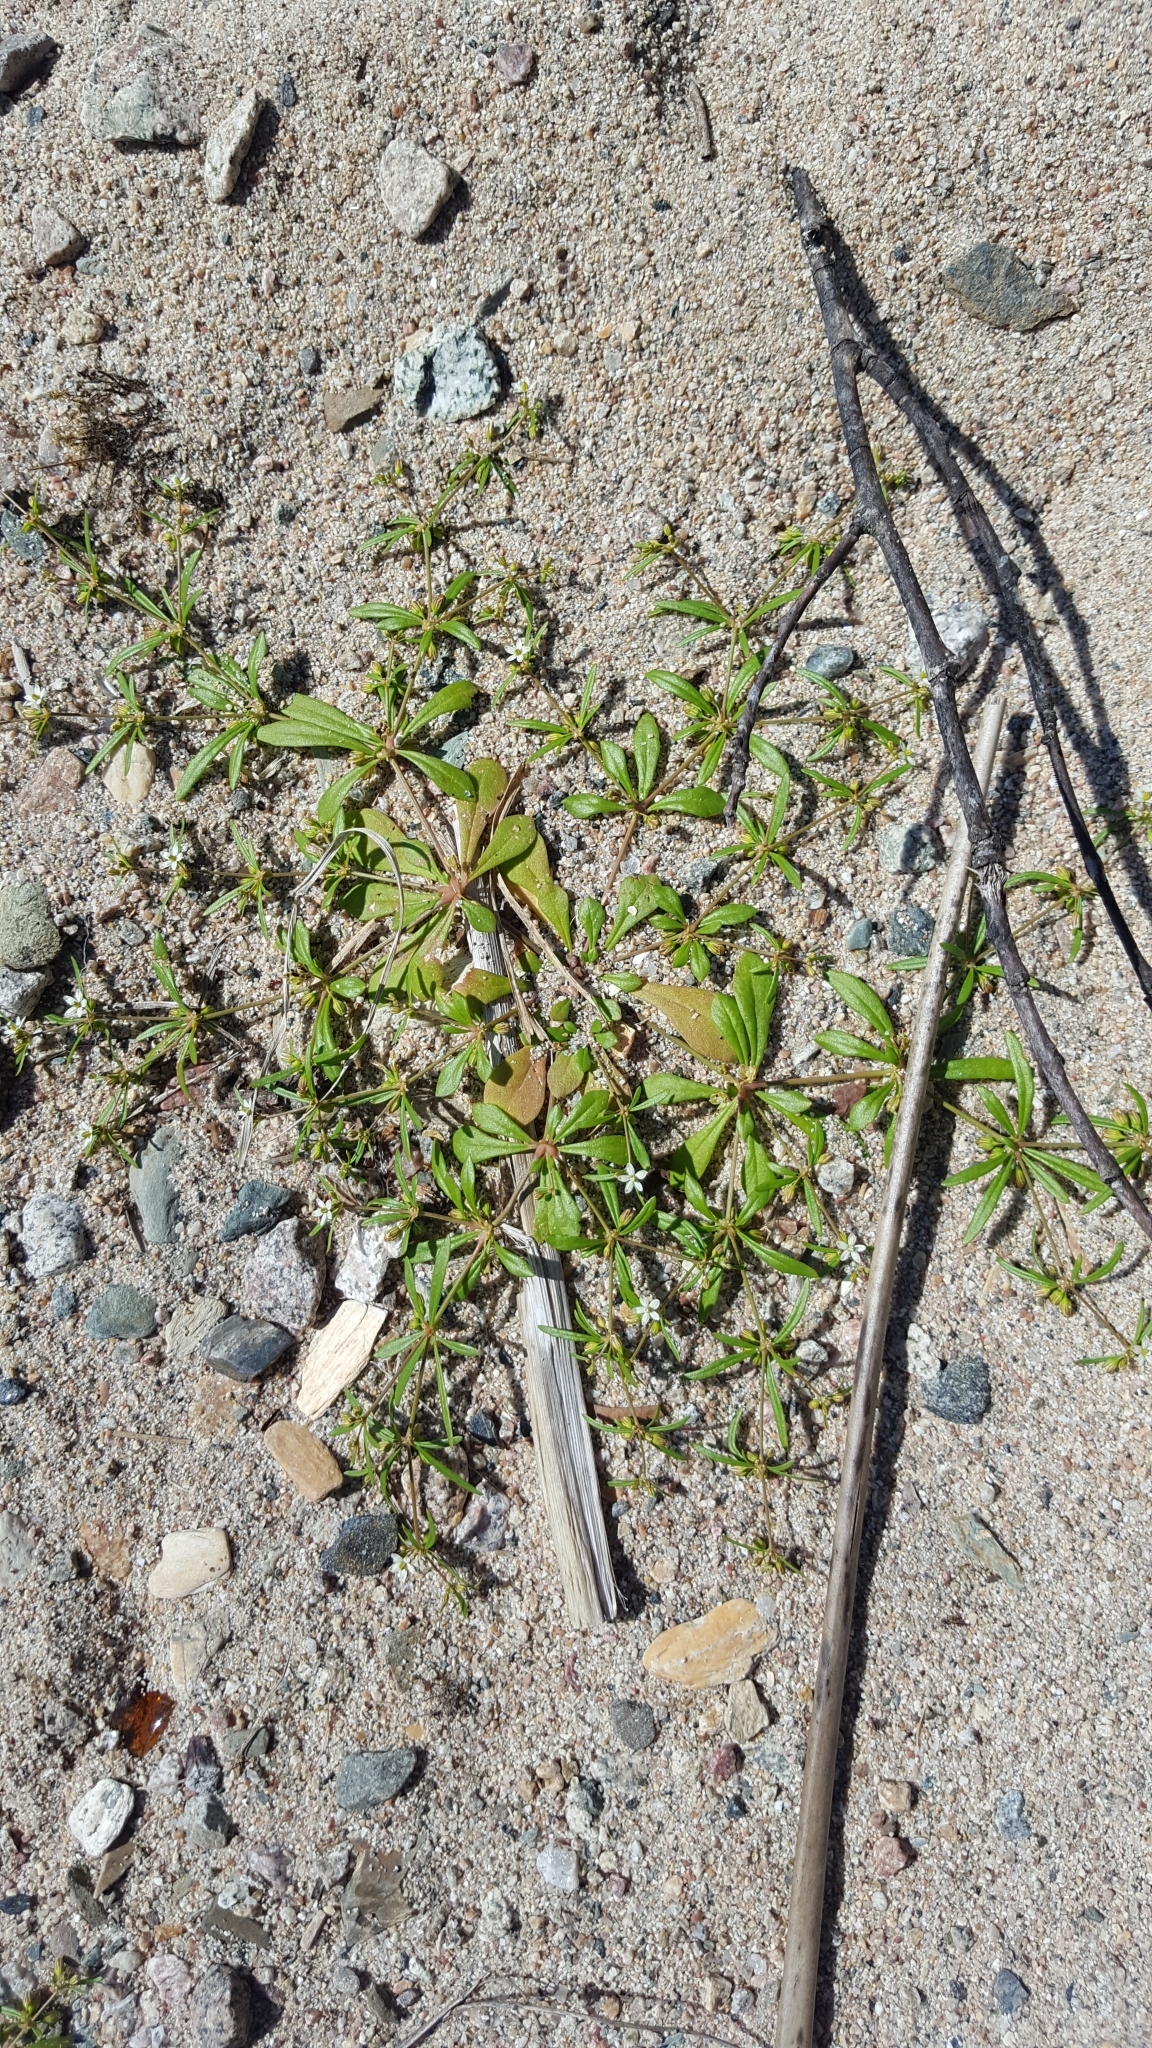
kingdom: Plantae
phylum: Tracheophyta
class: Magnoliopsida
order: Caryophyllales
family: Molluginaceae
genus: Mollugo
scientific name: Mollugo verticillata
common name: Green carpetweed
